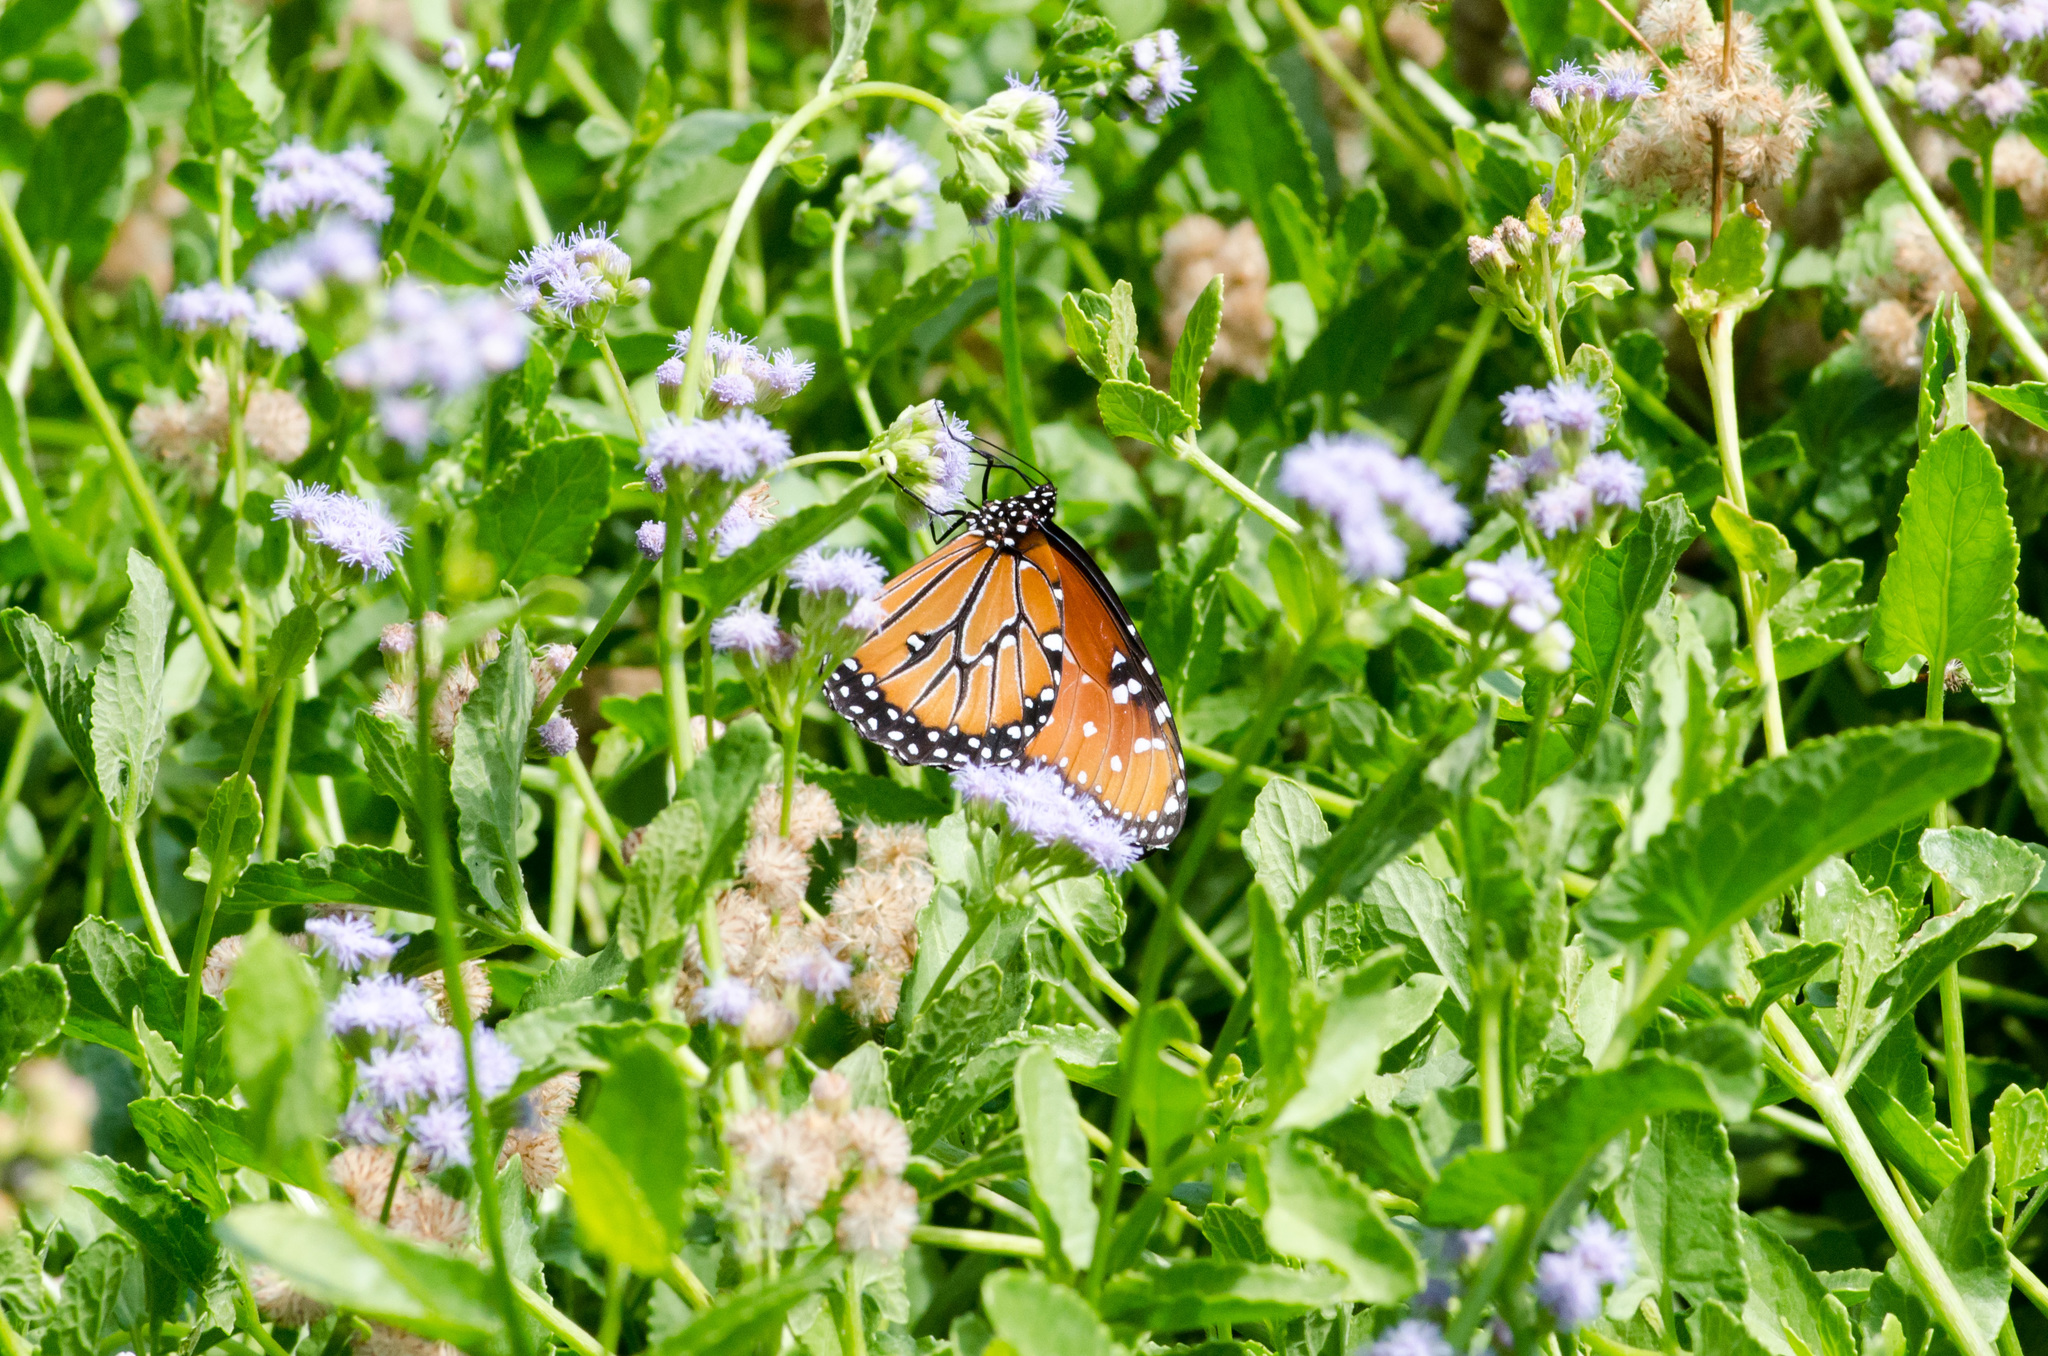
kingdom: Animalia
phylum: Arthropoda
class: Insecta
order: Lepidoptera
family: Nymphalidae
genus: Danaus
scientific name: Danaus gilippus
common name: Queen
